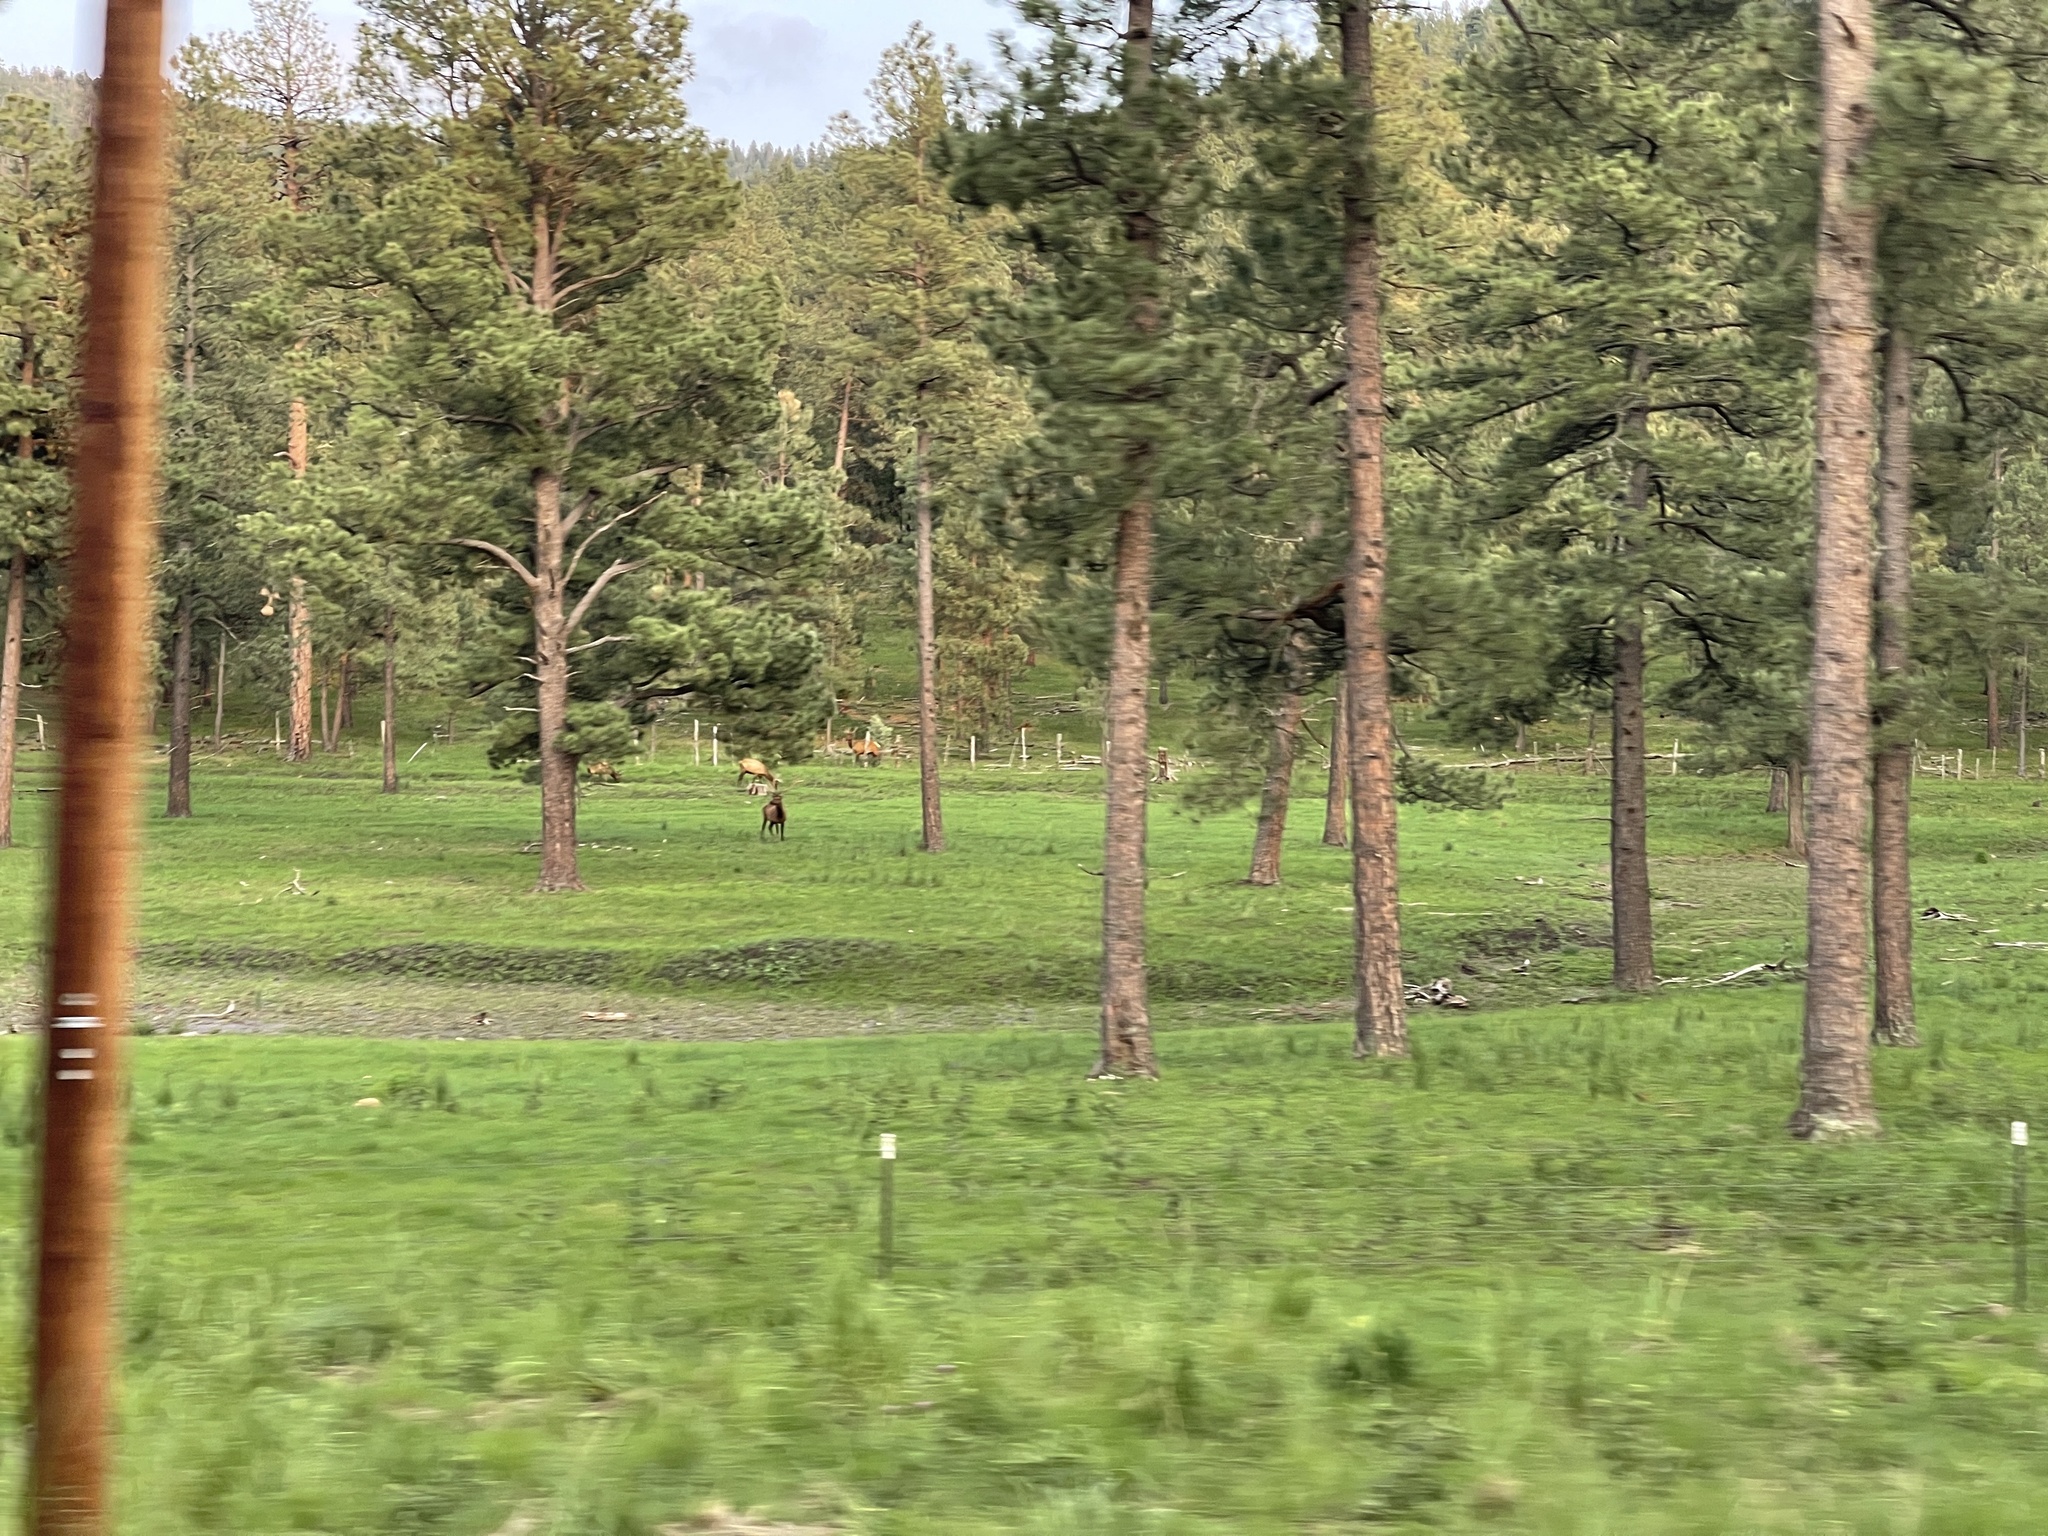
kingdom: Animalia
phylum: Chordata
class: Mammalia
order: Artiodactyla
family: Cervidae
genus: Cervus
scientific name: Cervus elaphus
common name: Red deer
